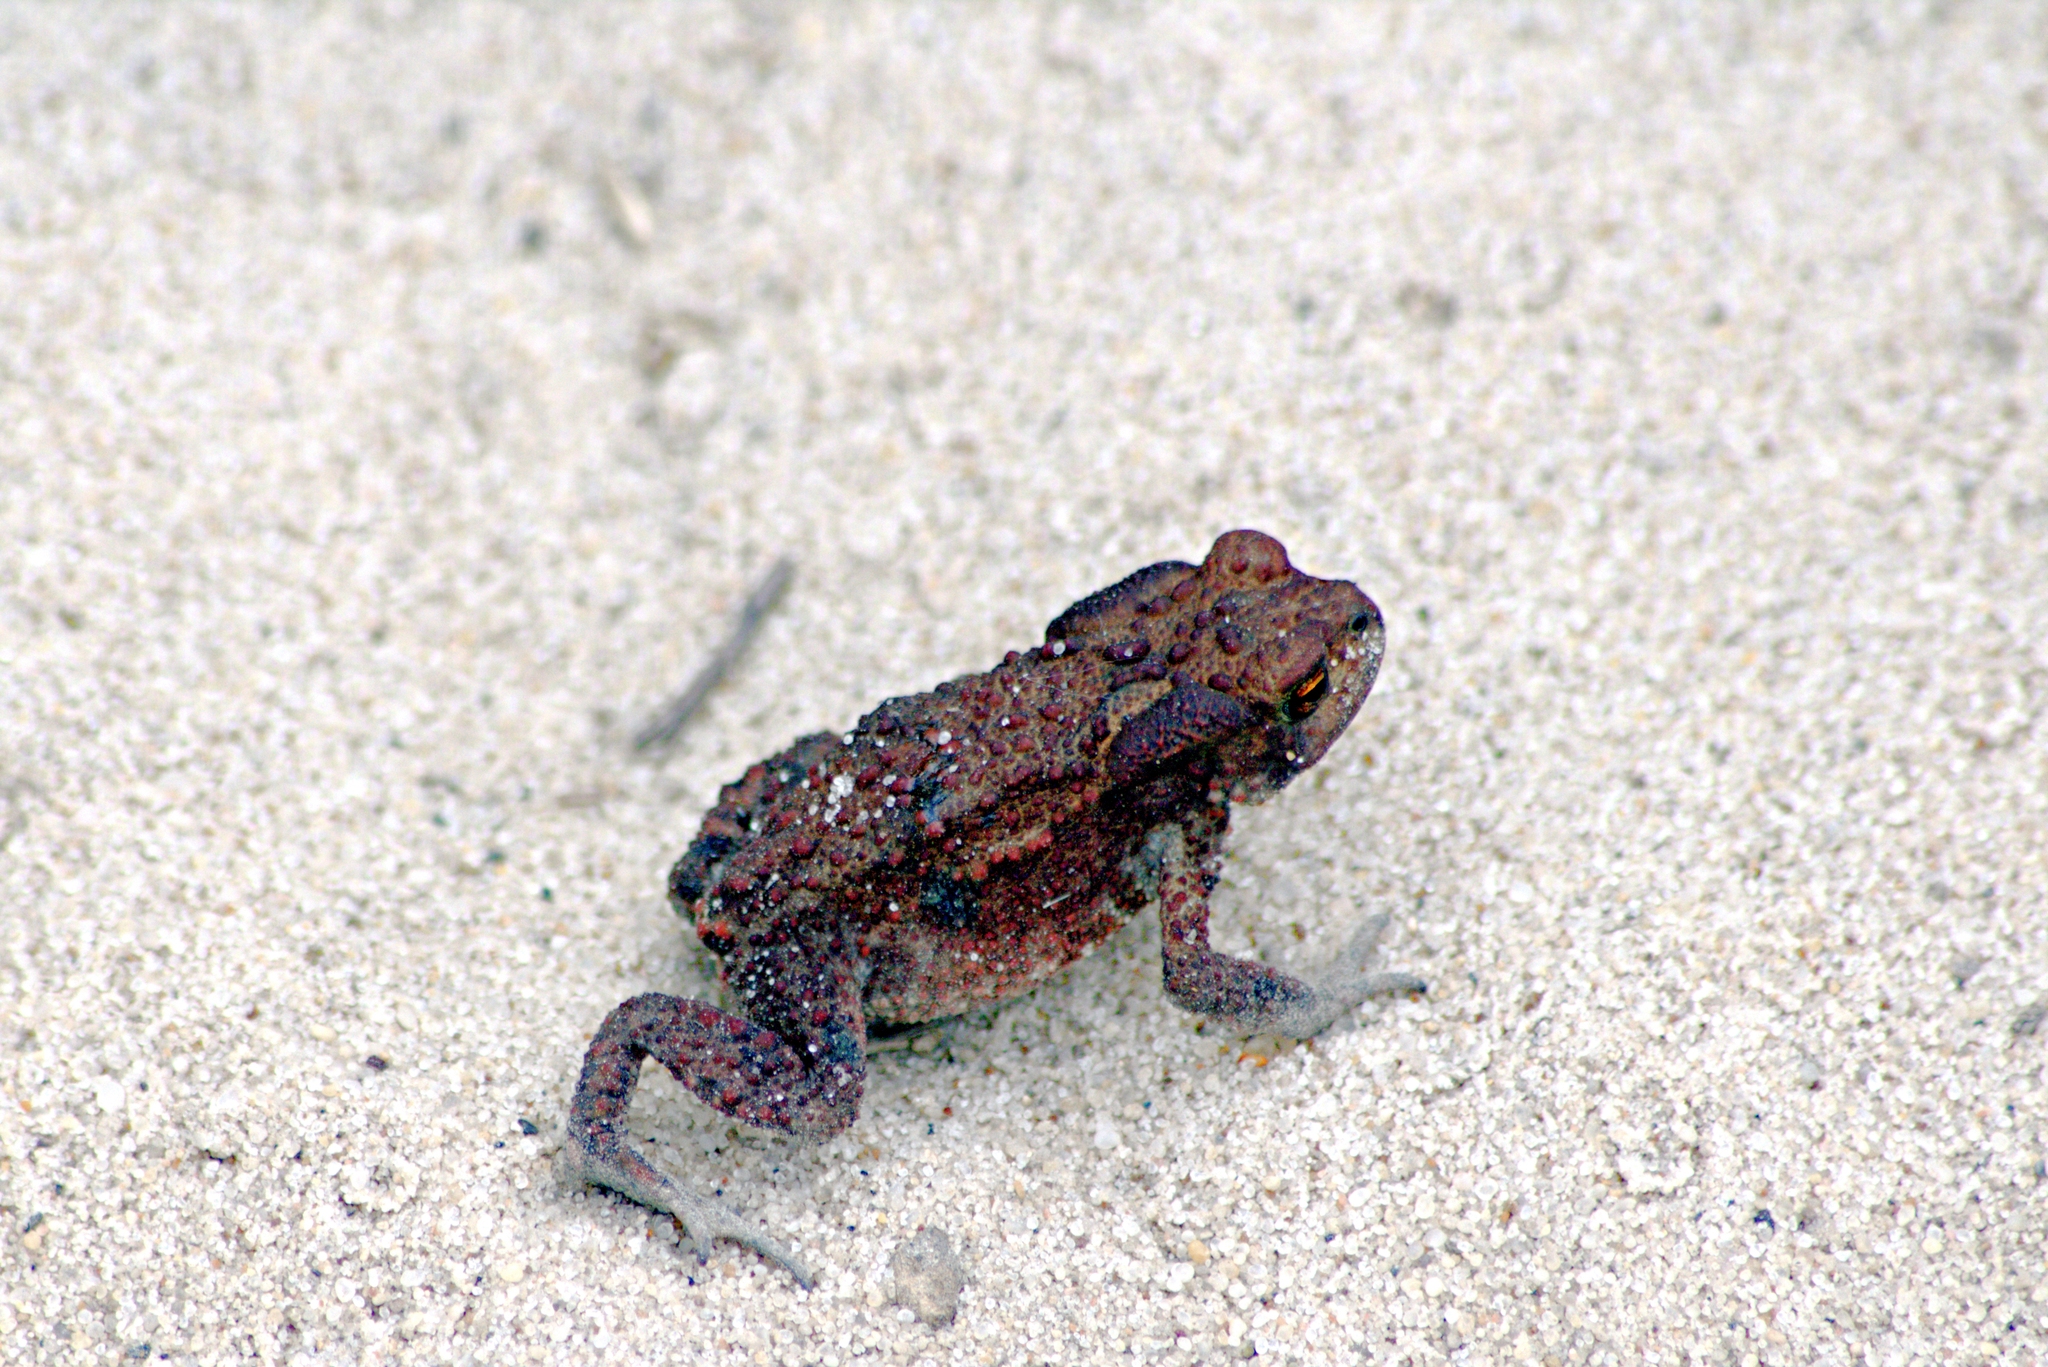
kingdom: Animalia
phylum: Chordata
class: Amphibia
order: Anura
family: Bufonidae
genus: Bufo
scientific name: Bufo bufo
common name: Common toad
